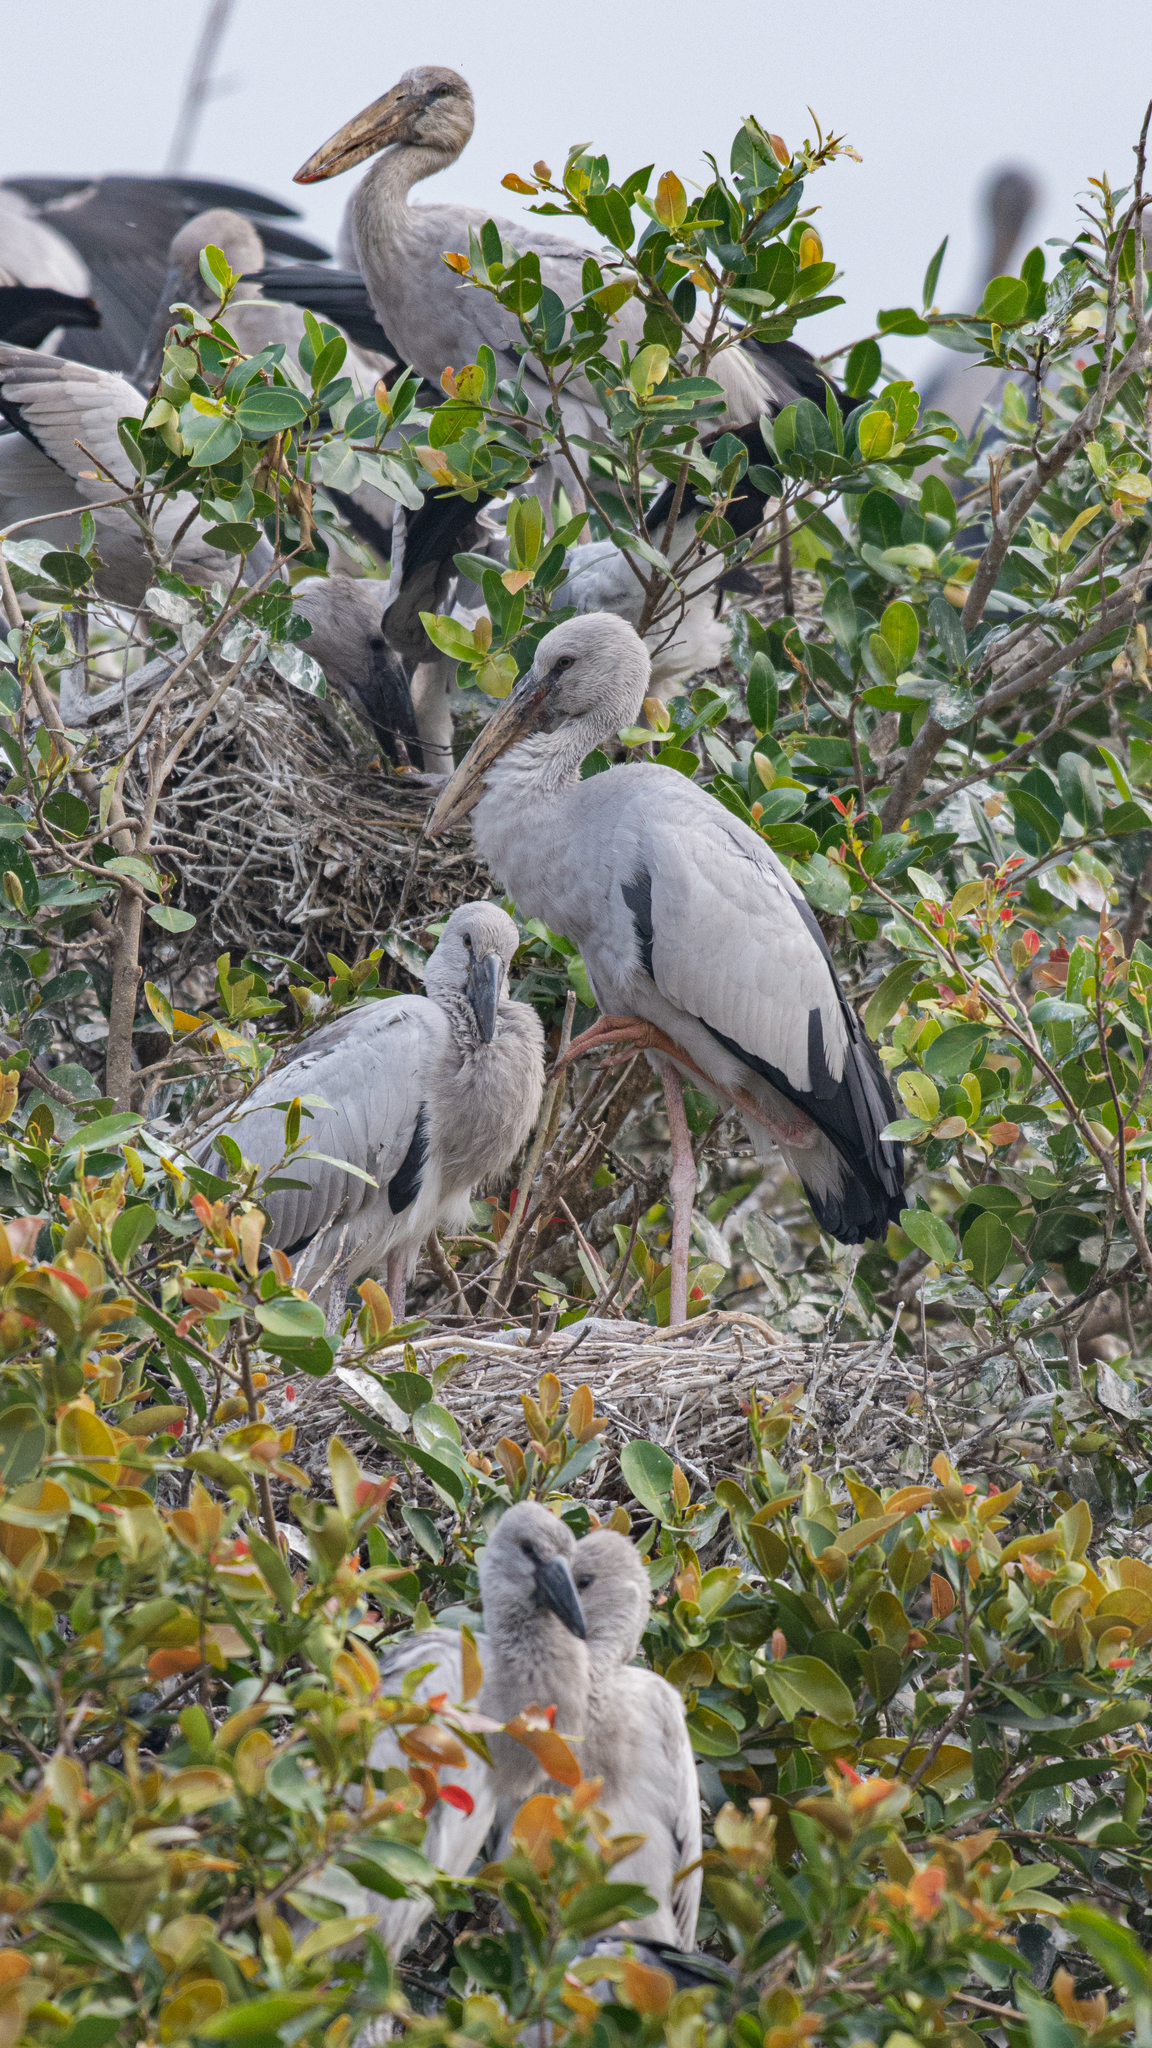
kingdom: Animalia
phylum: Chordata
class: Aves
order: Ciconiiformes
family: Ciconiidae
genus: Anastomus
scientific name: Anastomus oscitans
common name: Asian openbill
